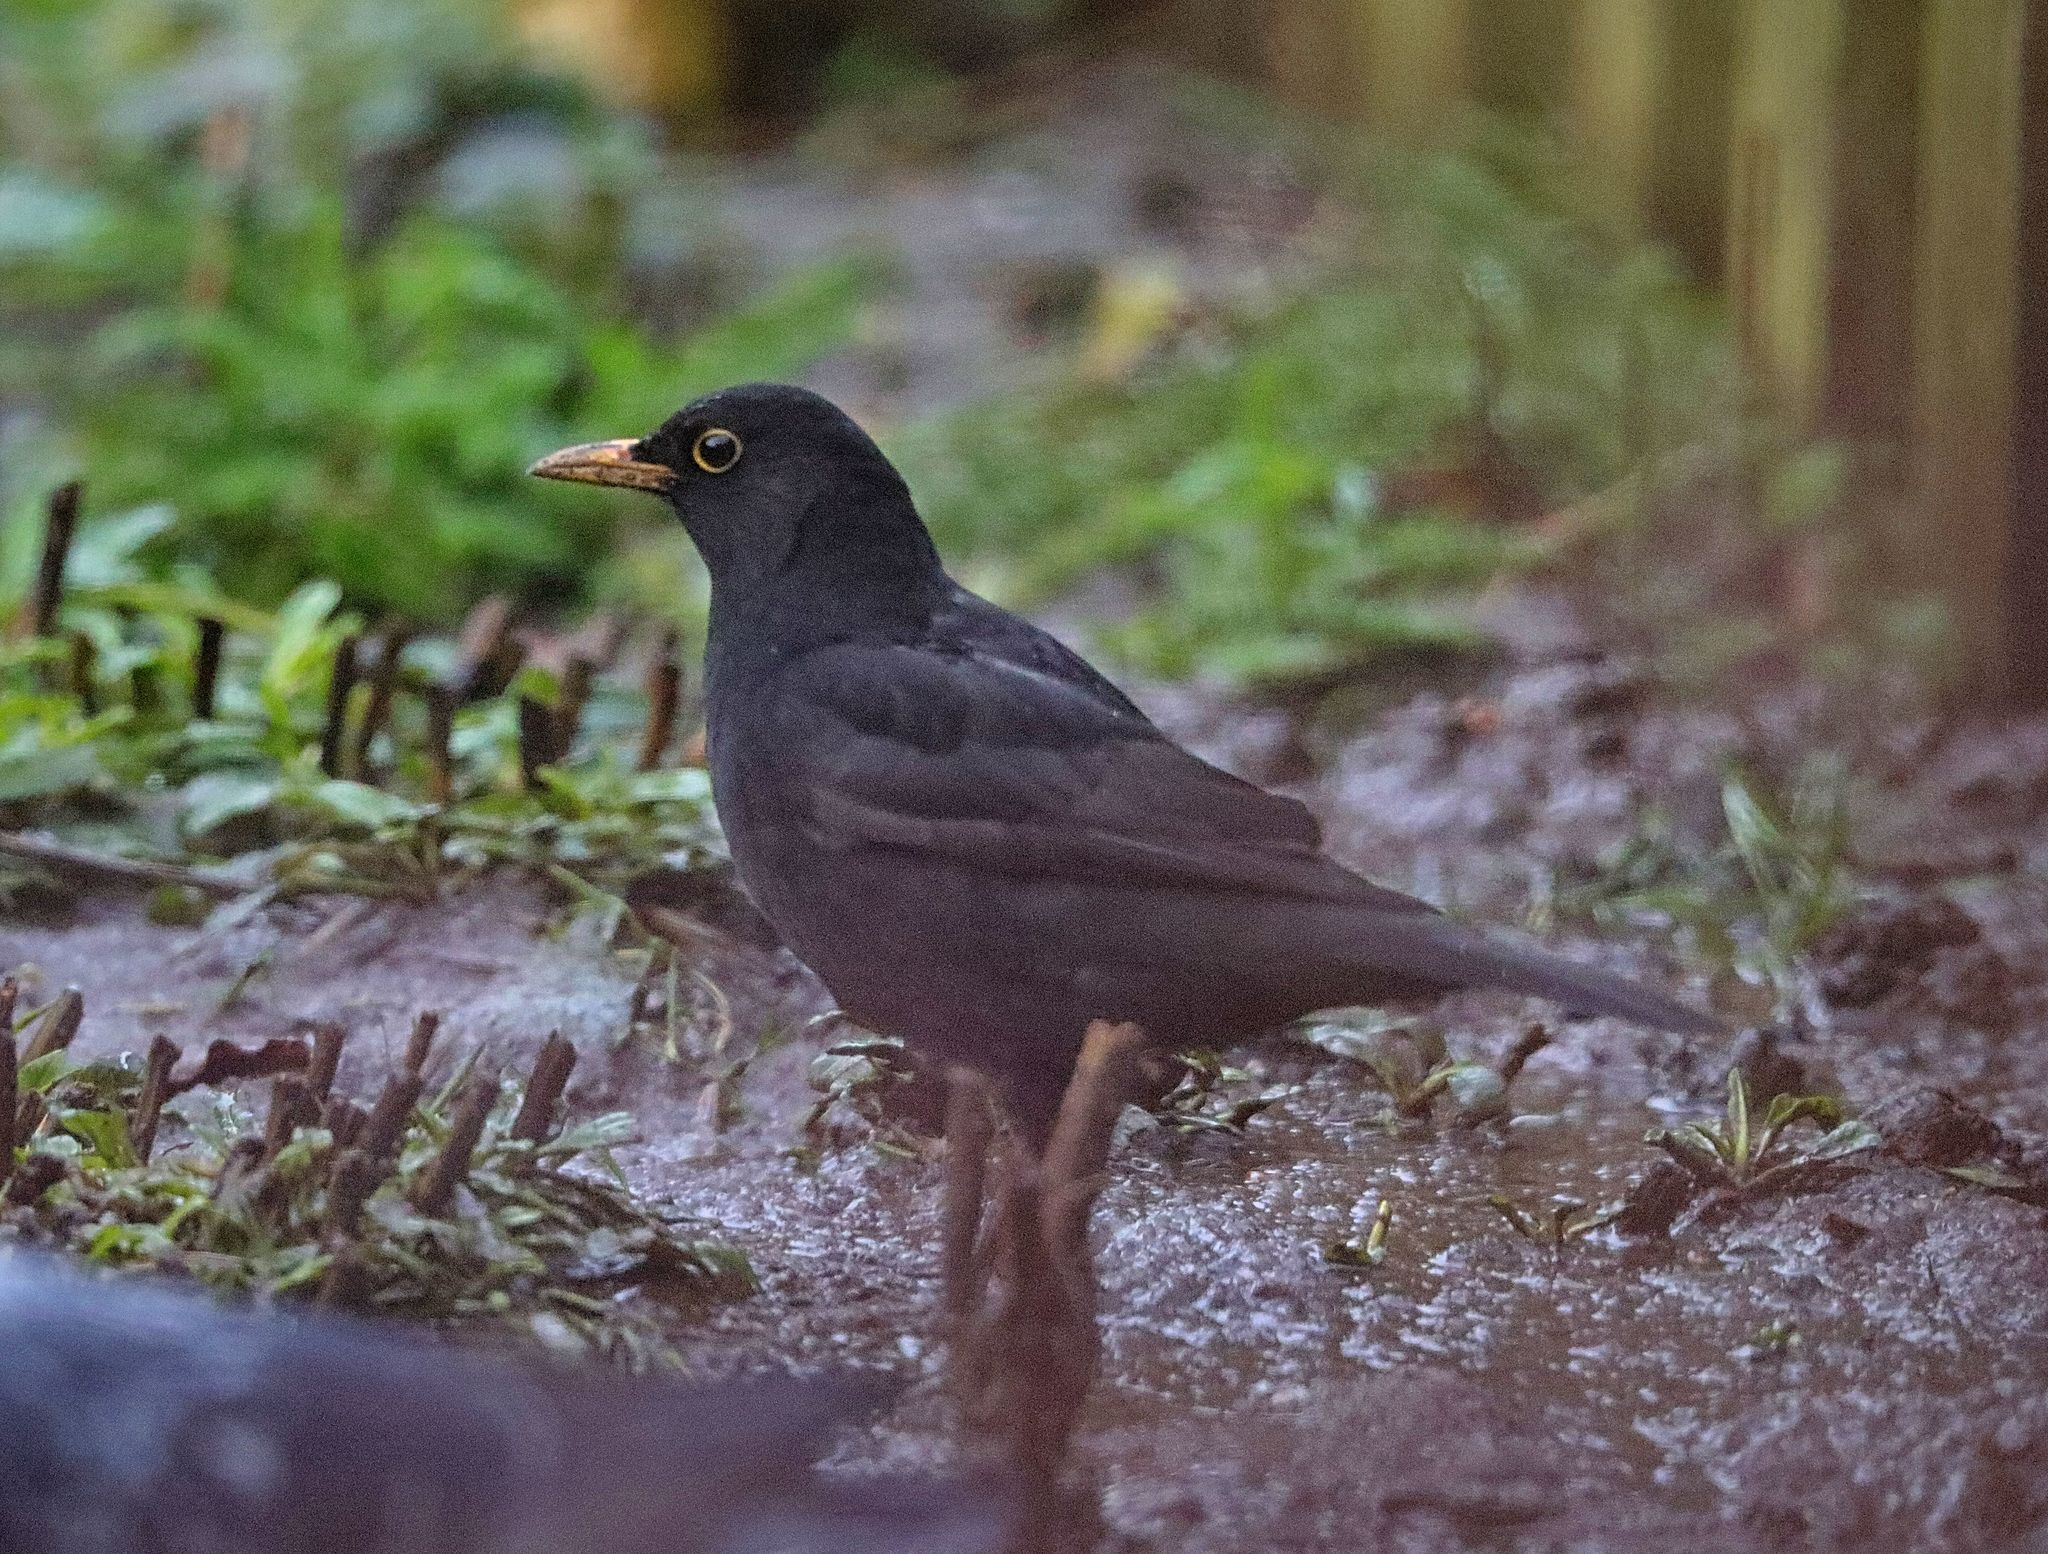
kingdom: Animalia
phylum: Chordata
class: Aves
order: Passeriformes
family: Turdidae
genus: Turdus
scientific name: Turdus merula
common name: Common blackbird
